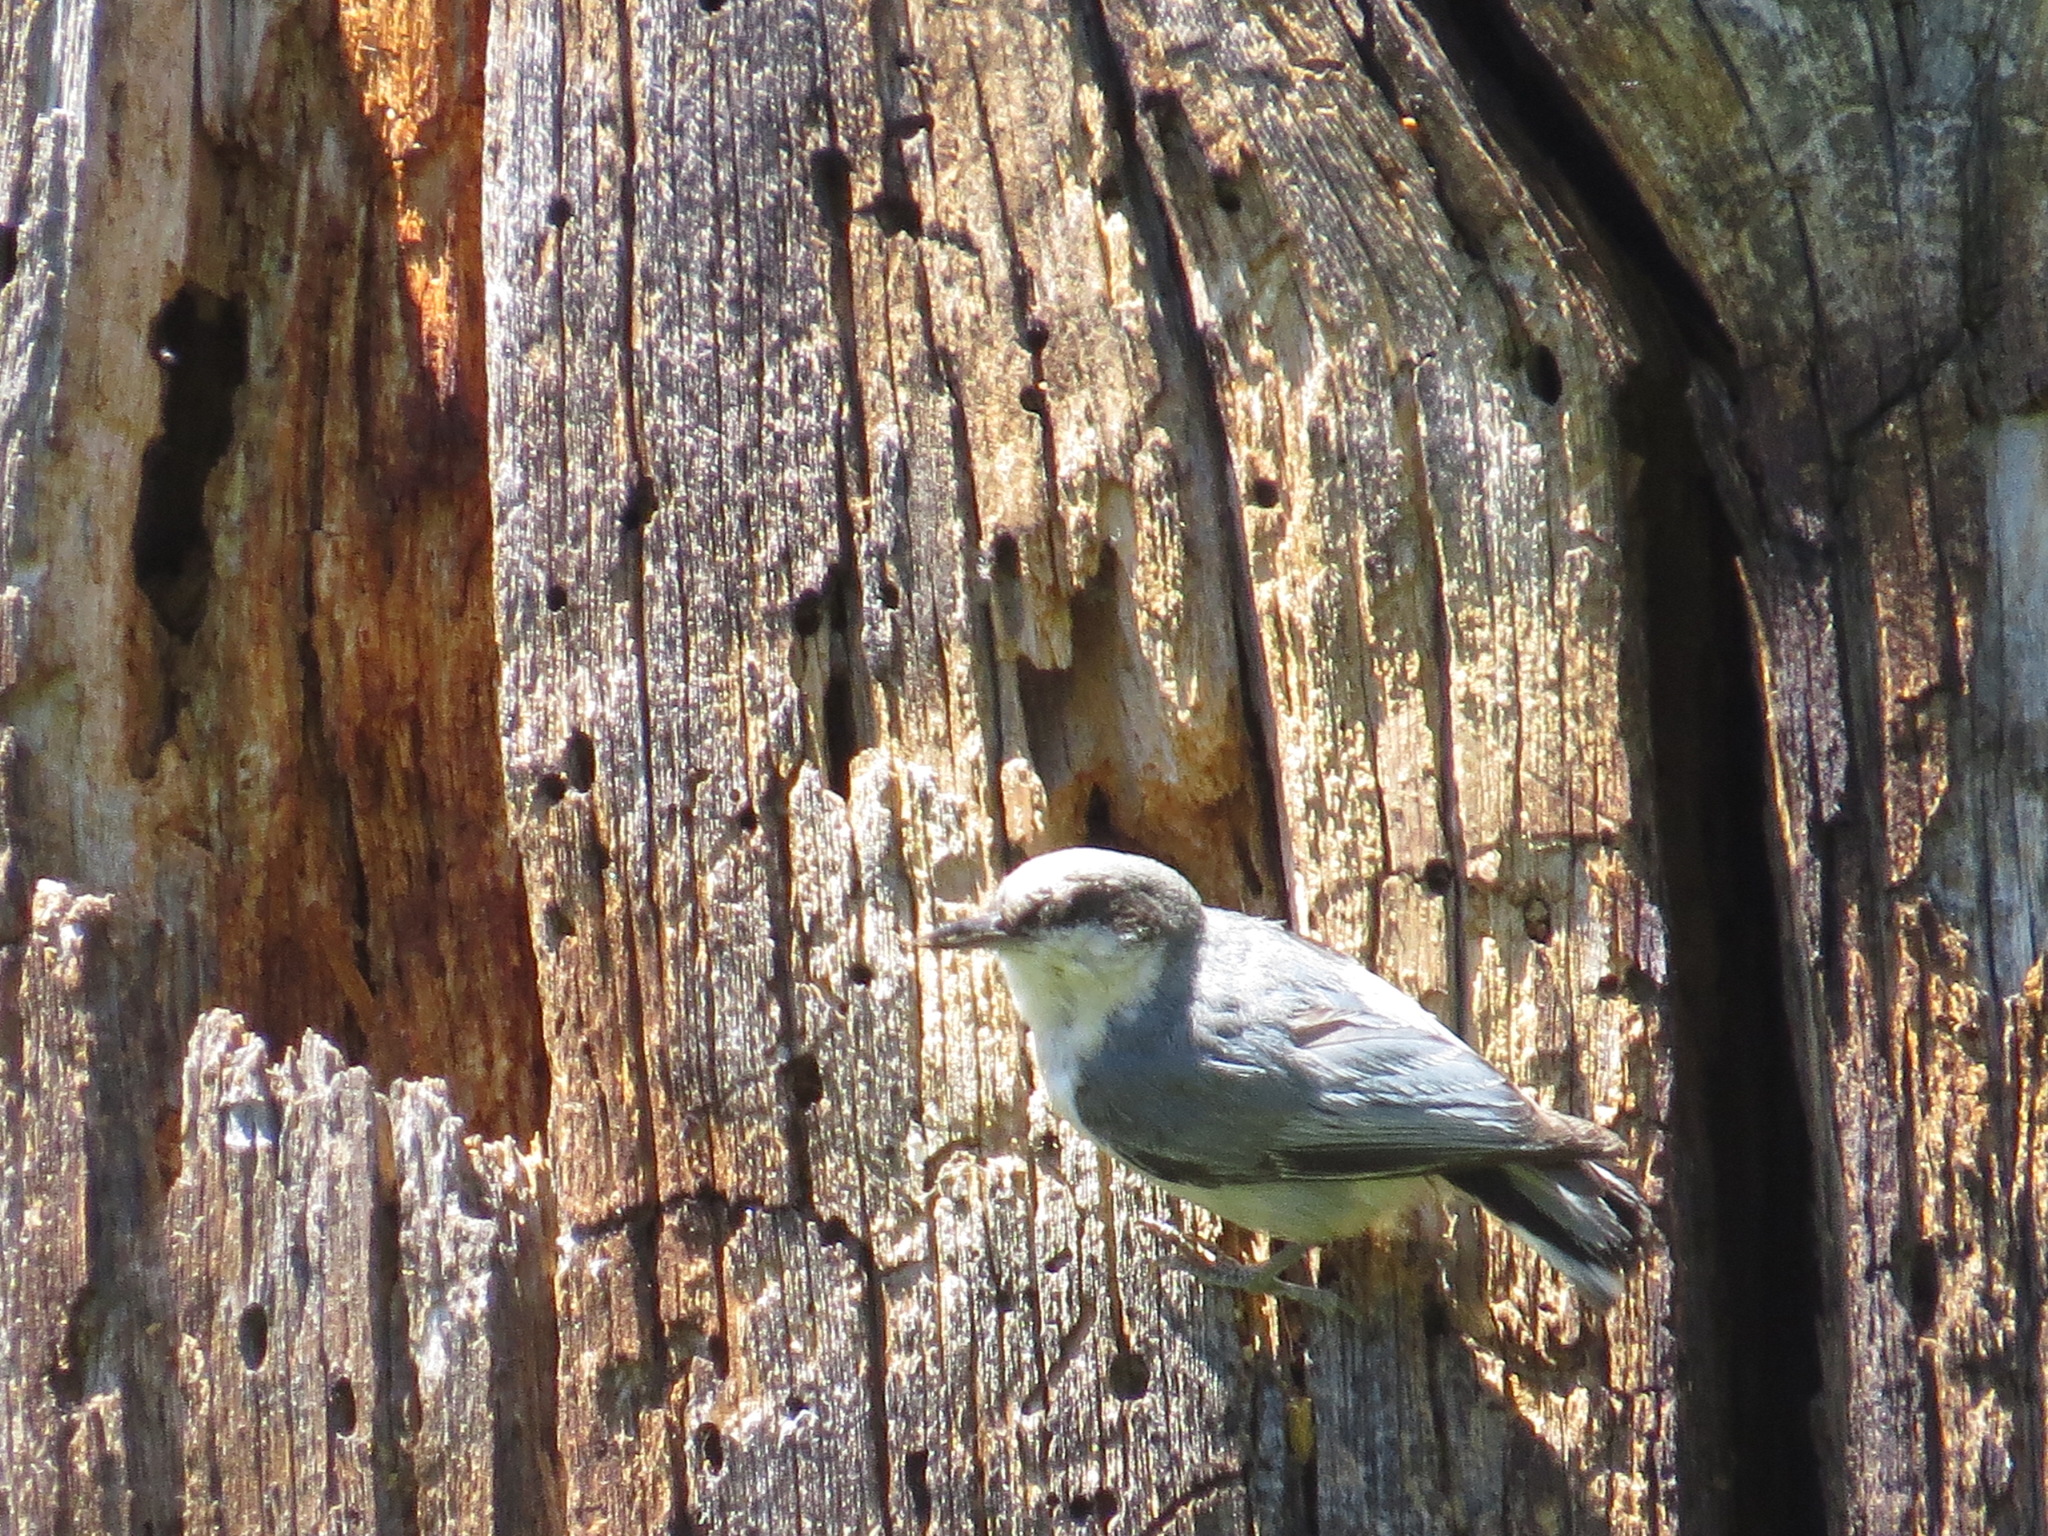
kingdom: Animalia
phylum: Chordata
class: Aves
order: Passeriformes
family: Sittidae
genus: Sitta
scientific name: Sitta pygmaea
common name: Pygmy nuthatch
